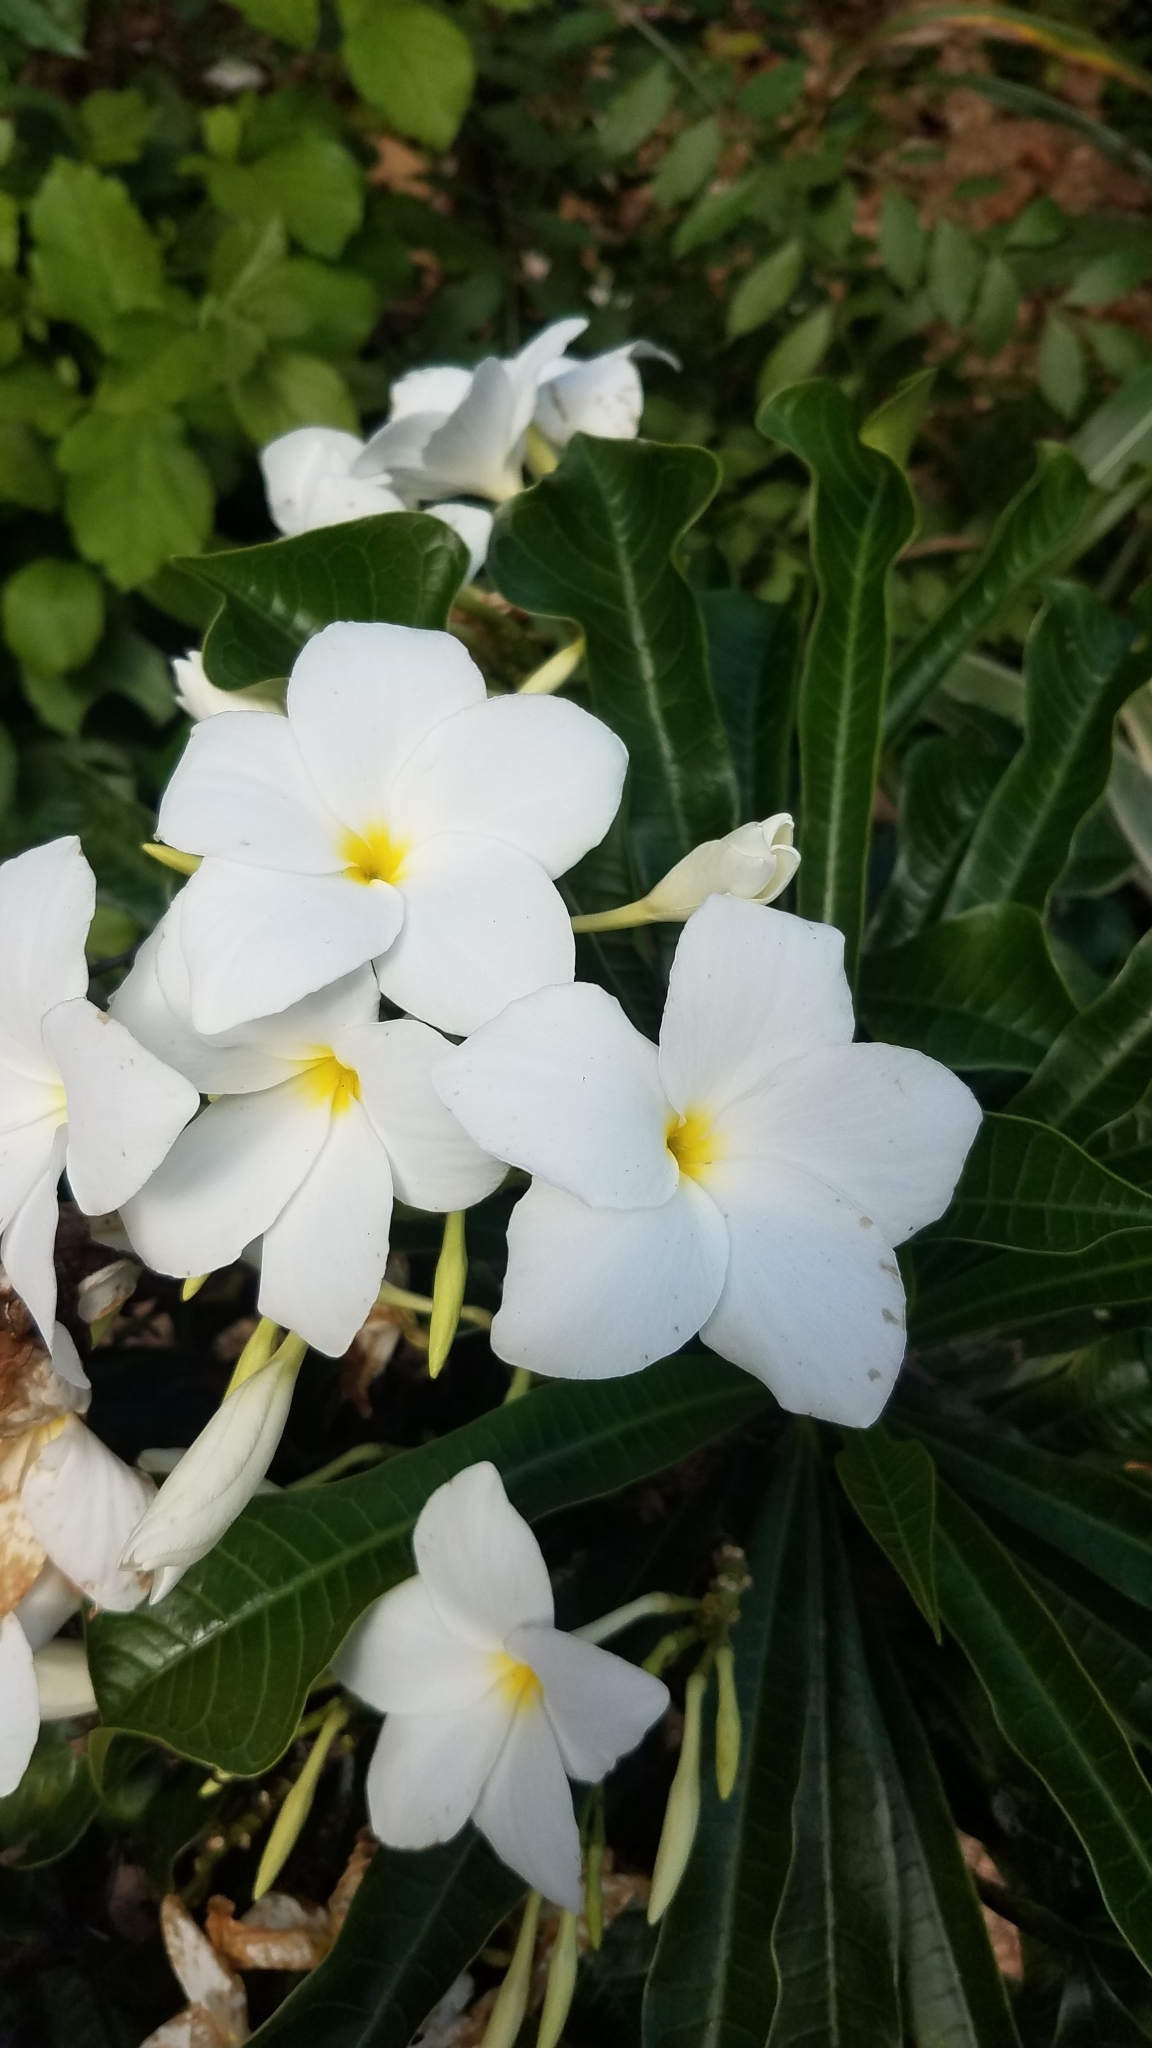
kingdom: Plantae
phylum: Tracheophyta
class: Magnoliopsida
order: Gentianales
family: Apocynaceae
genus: Plumeria
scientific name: Plumeria pudica
